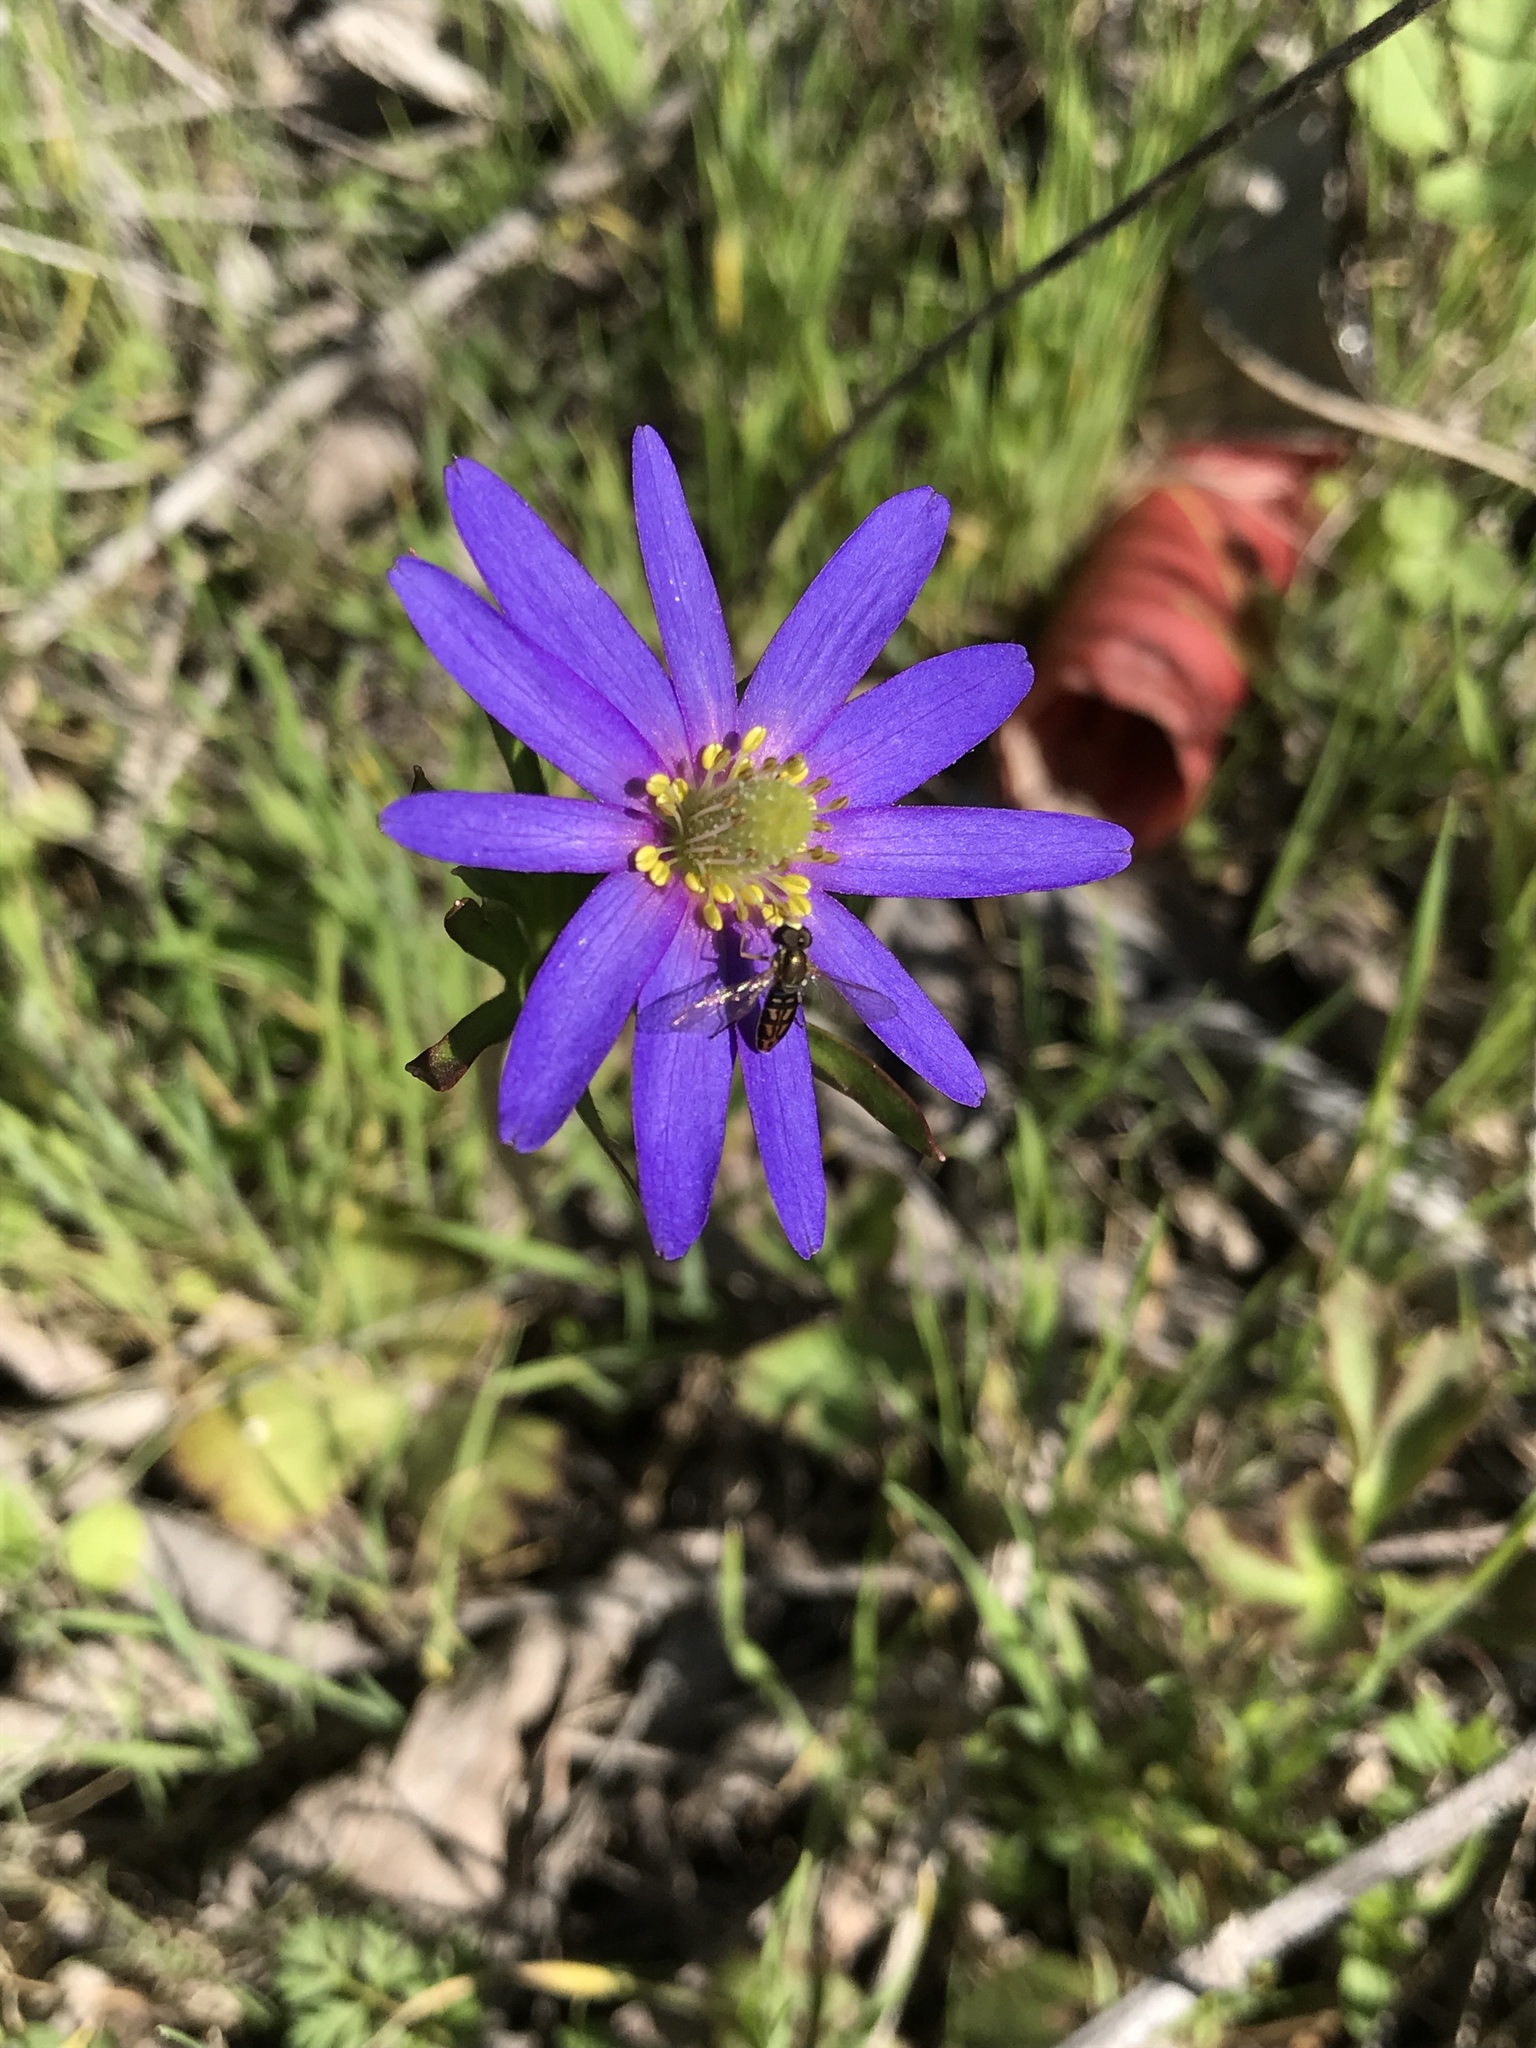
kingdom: Plantae
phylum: Tracheophyta
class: Magnoliopsida
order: Ranunculales
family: Ranunculaceae
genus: Anemone
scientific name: Anemone berlandieri
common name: Ten-petal anemone
